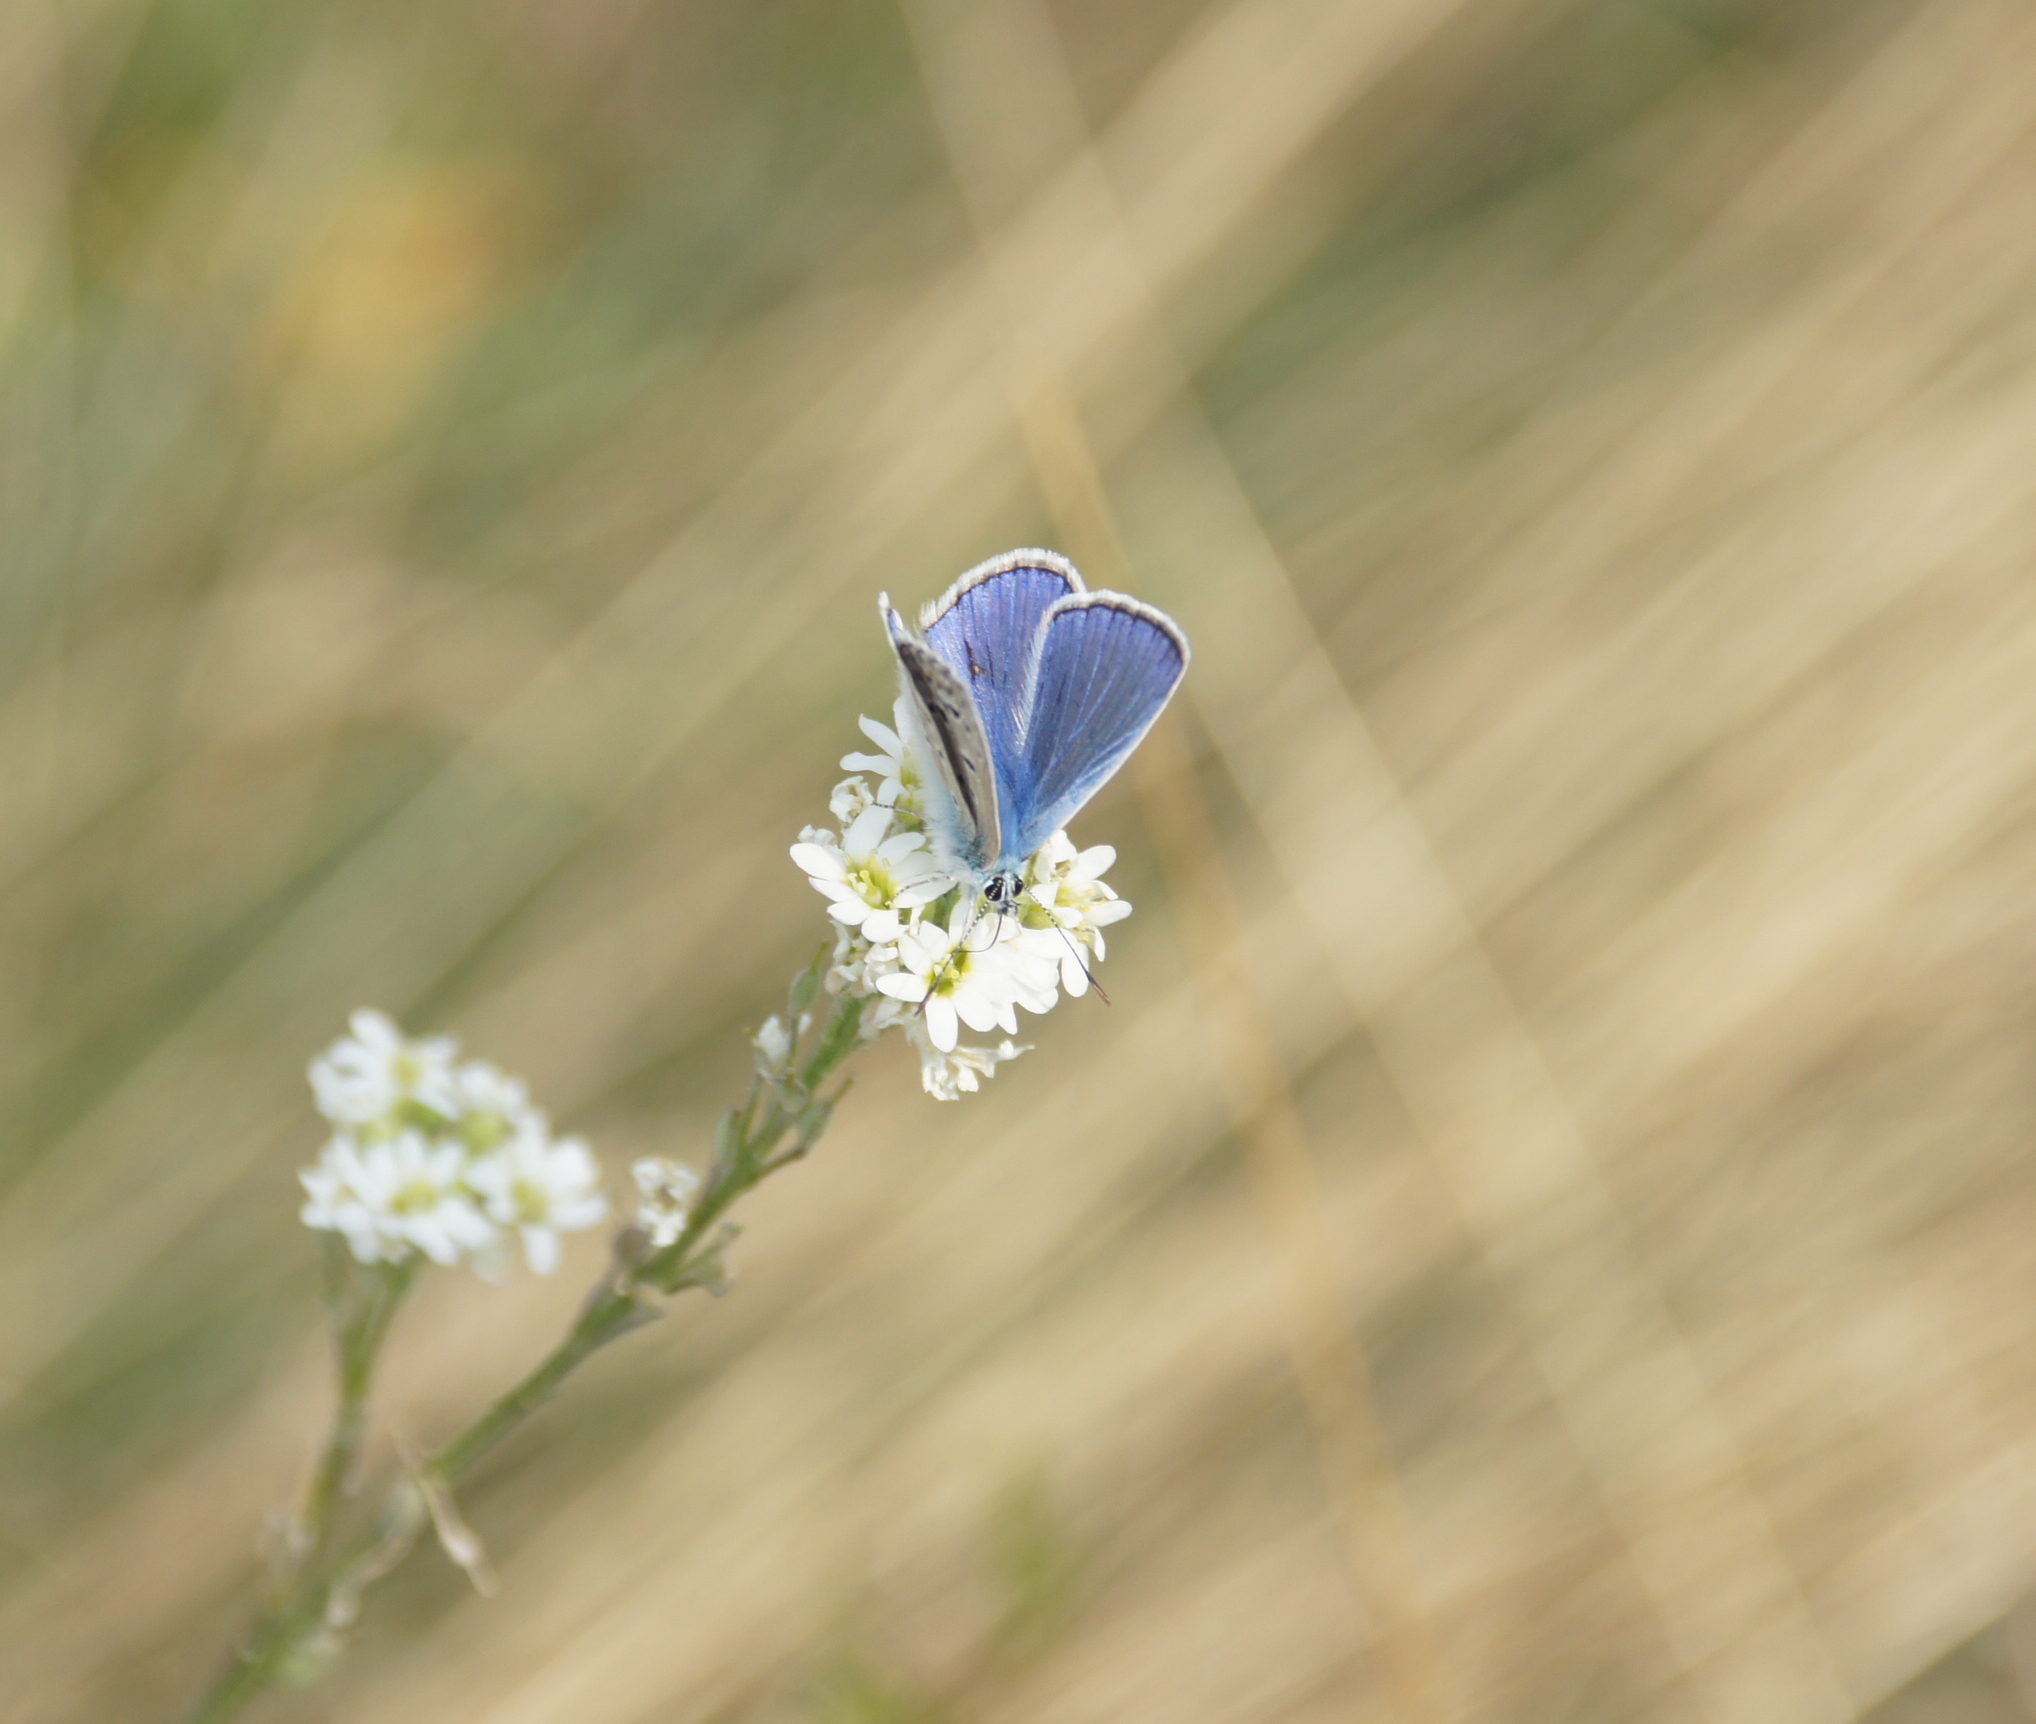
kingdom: Animalia
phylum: Arthropoda
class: Insecta
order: Lepidoptera
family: Lycaenidae
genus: Polyommatus
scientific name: Polyommatus icarus
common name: Common blue
